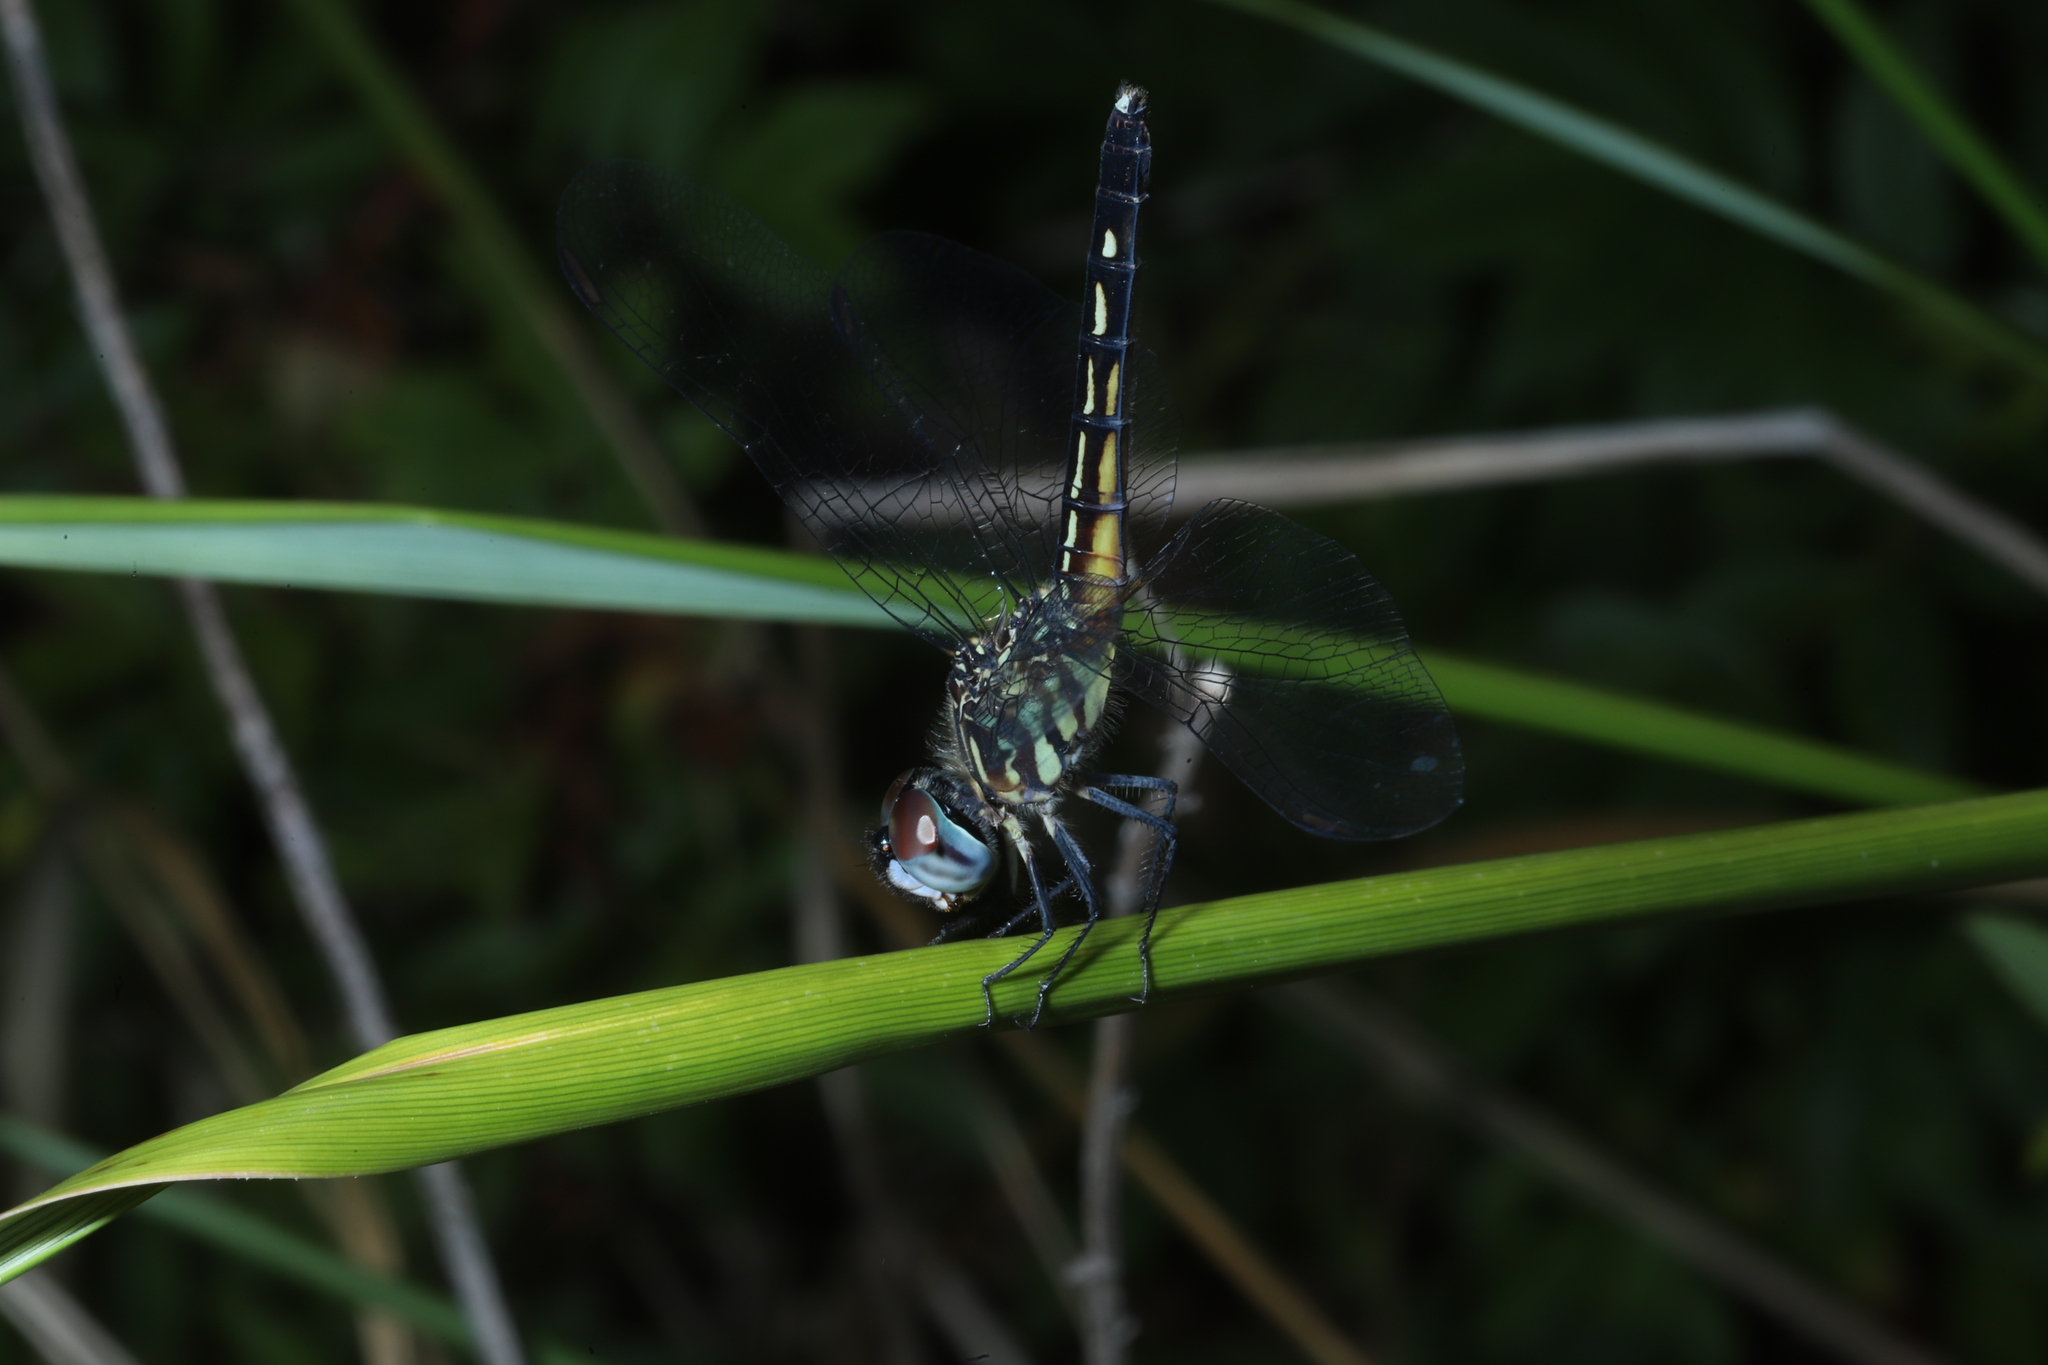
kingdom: Animalia
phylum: Arthropoda
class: Insecta
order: Odonata
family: Libellulidae
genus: Pachydiplax
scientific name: Pachydiplax longipennis
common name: Blue dasher
